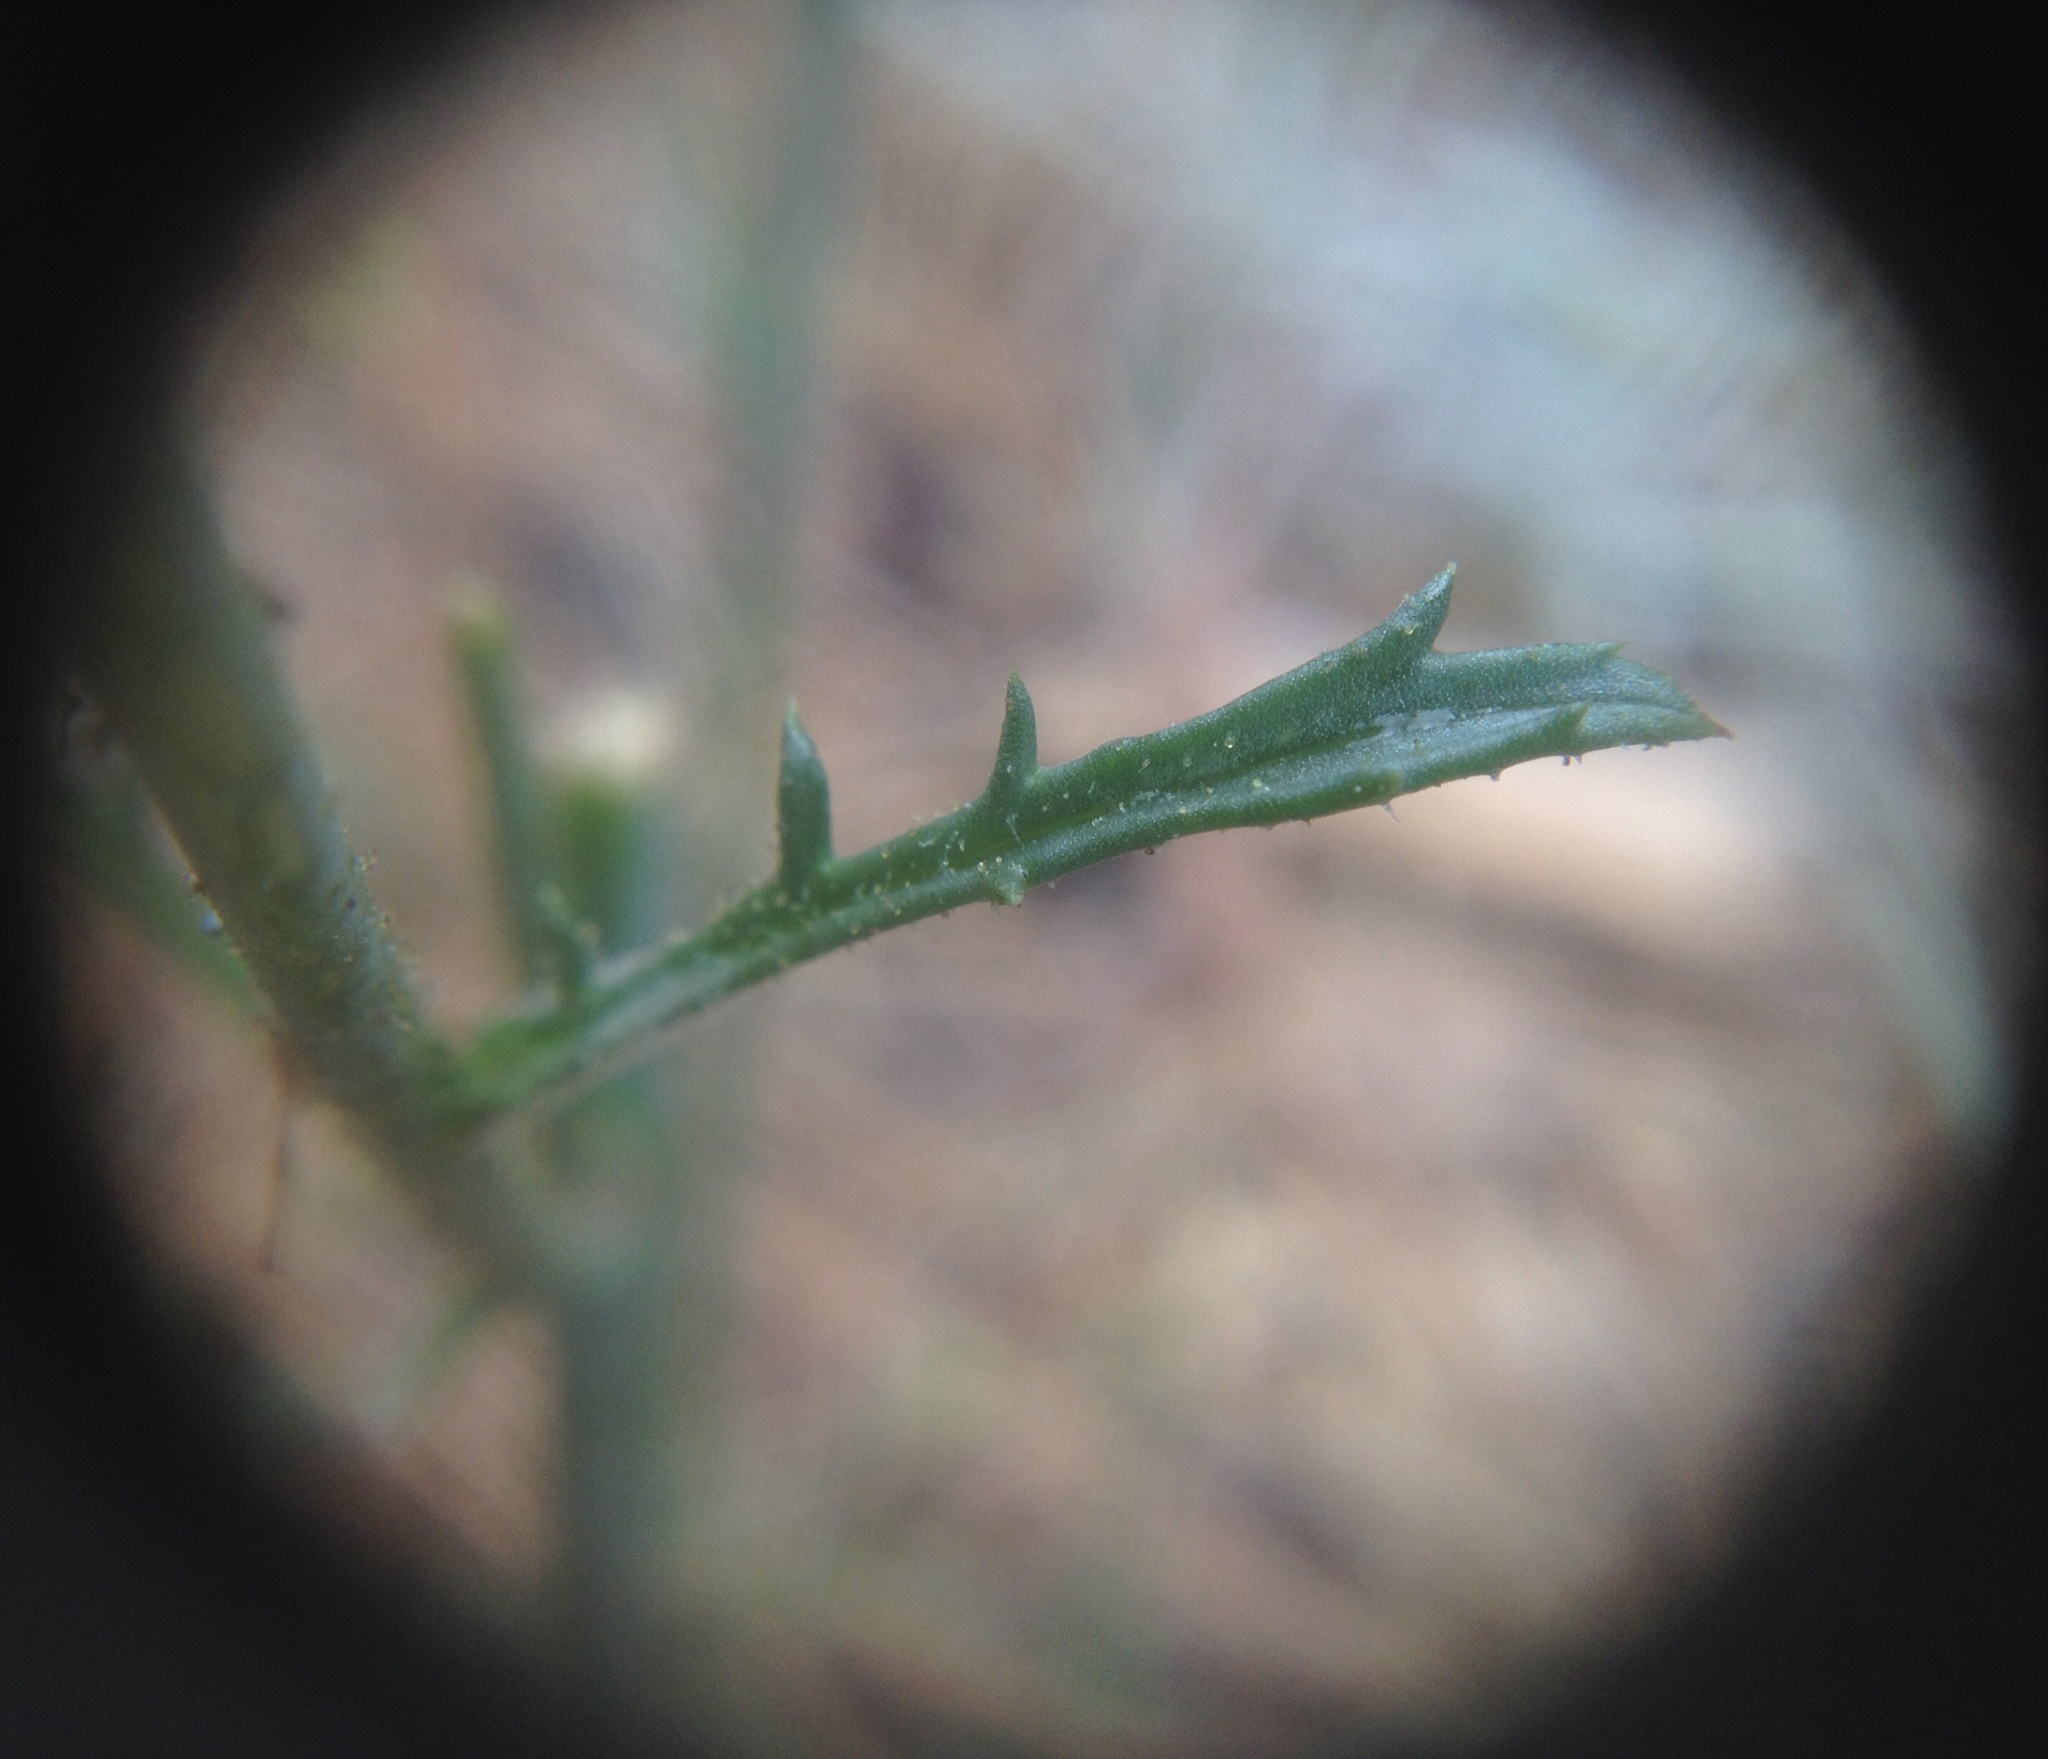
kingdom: Plantae
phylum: Tracheophyta
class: Magnoliopsida
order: Ericales
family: Polemoniaceae
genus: Saltugilia
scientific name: Saltugilia splendens
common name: Grinnell's gilia
